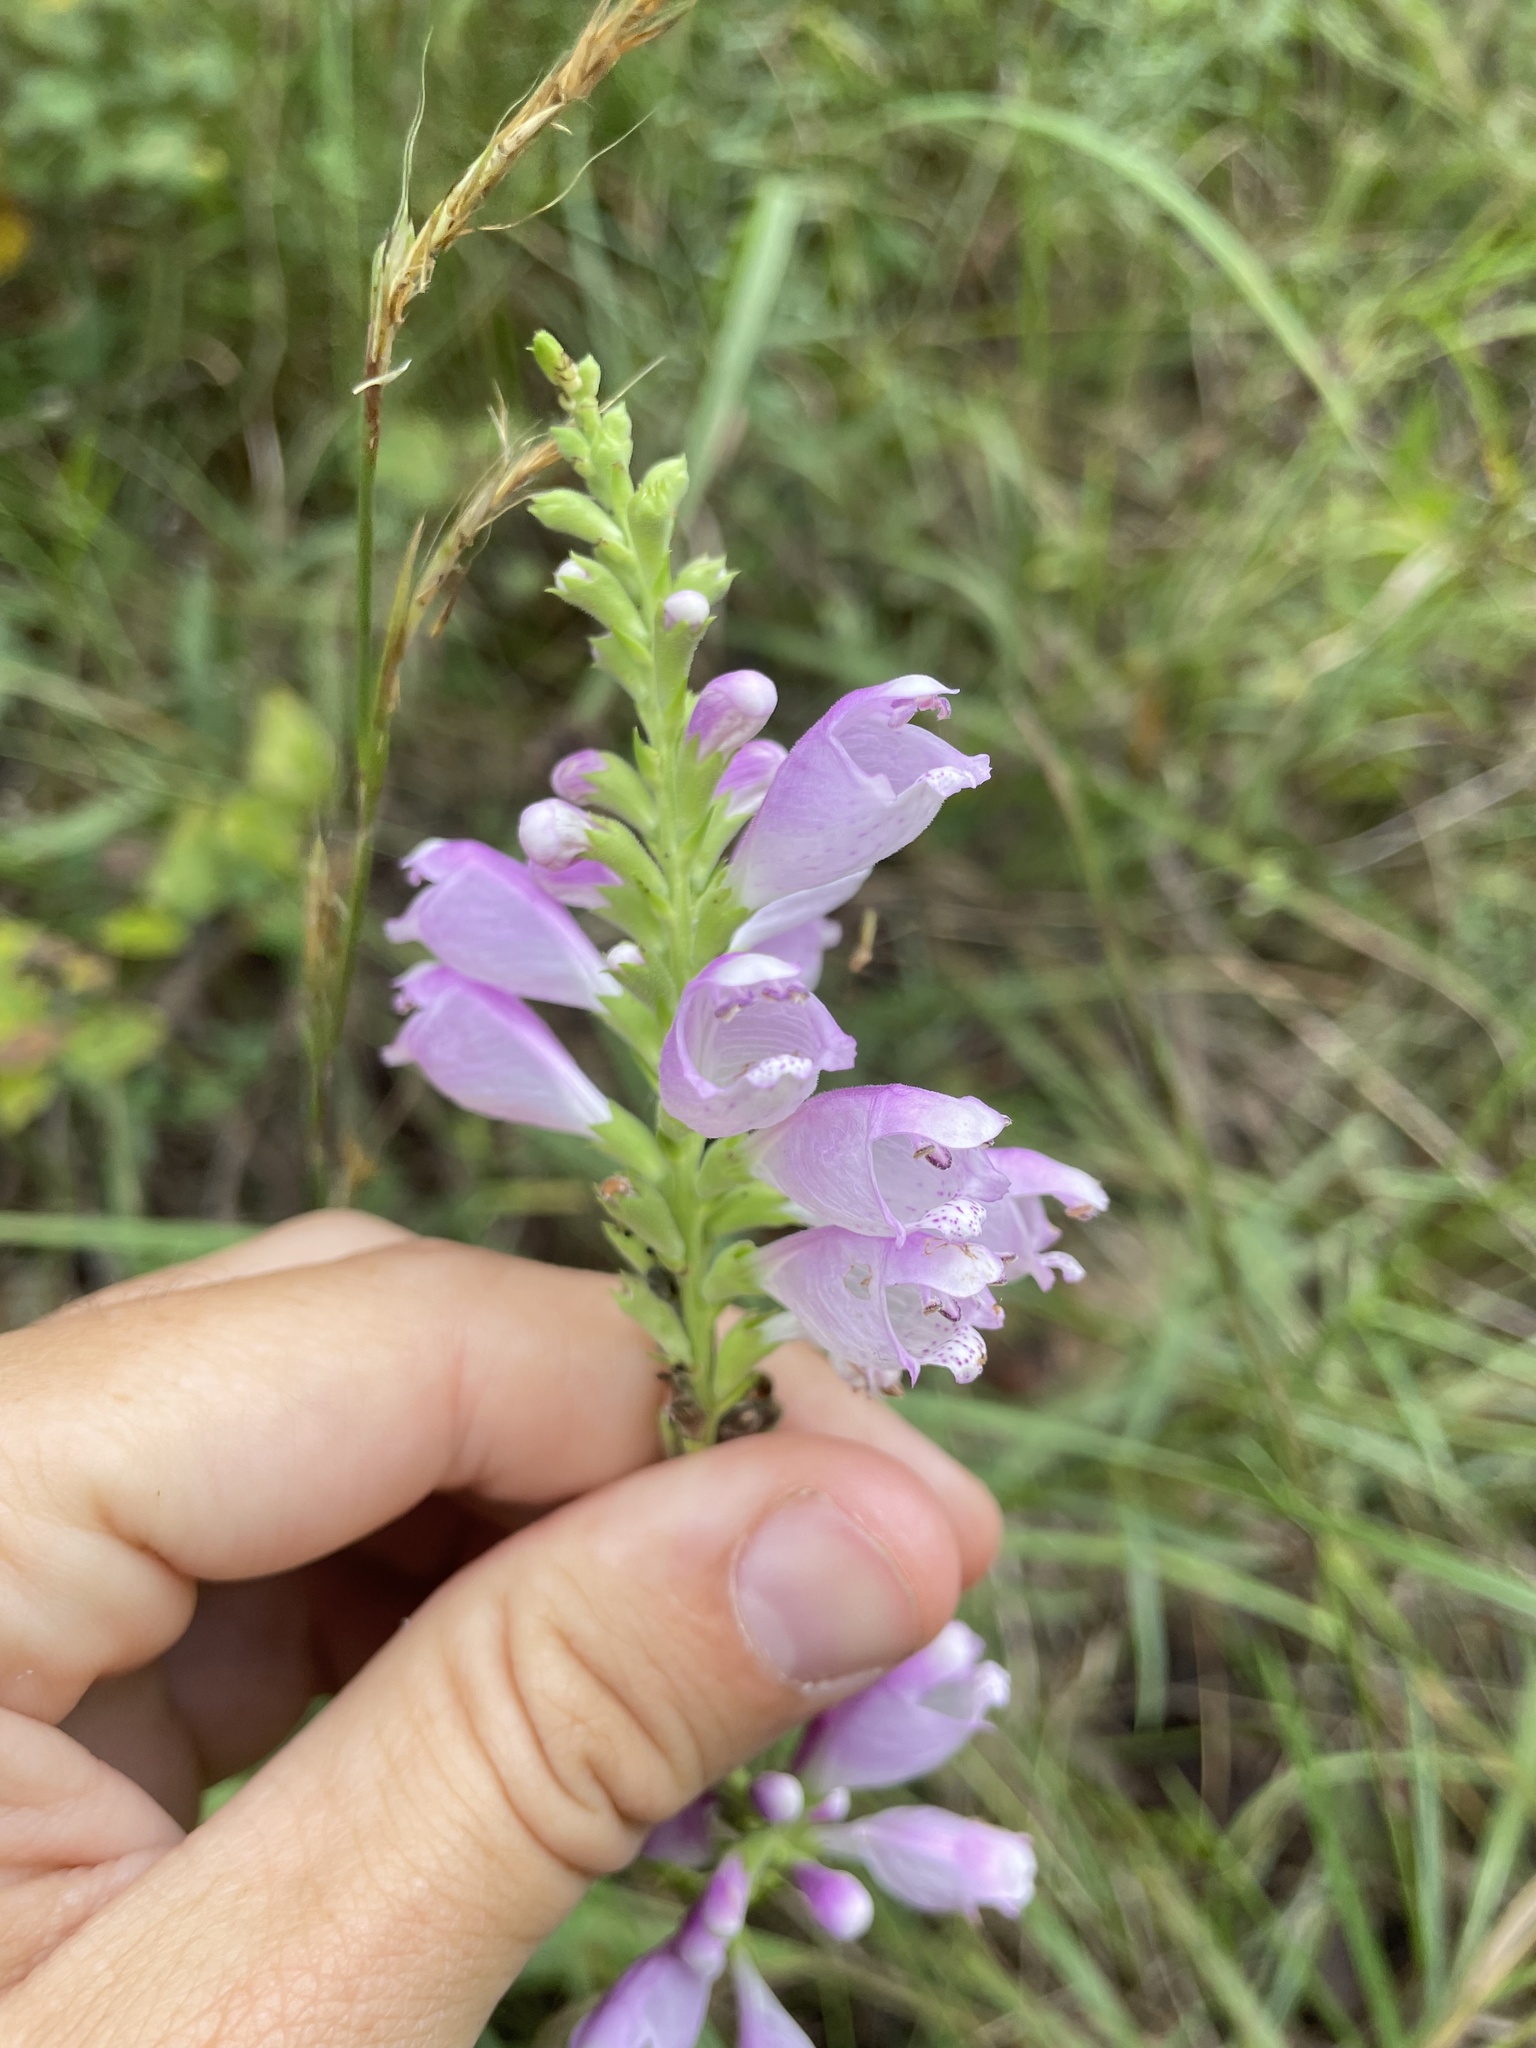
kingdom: Plantae
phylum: Tracheophyta
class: Magnoliopsida
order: Lamiales
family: Lamiaceae
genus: Physostegia
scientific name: Physostegia virginiana
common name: Obedient-plant
